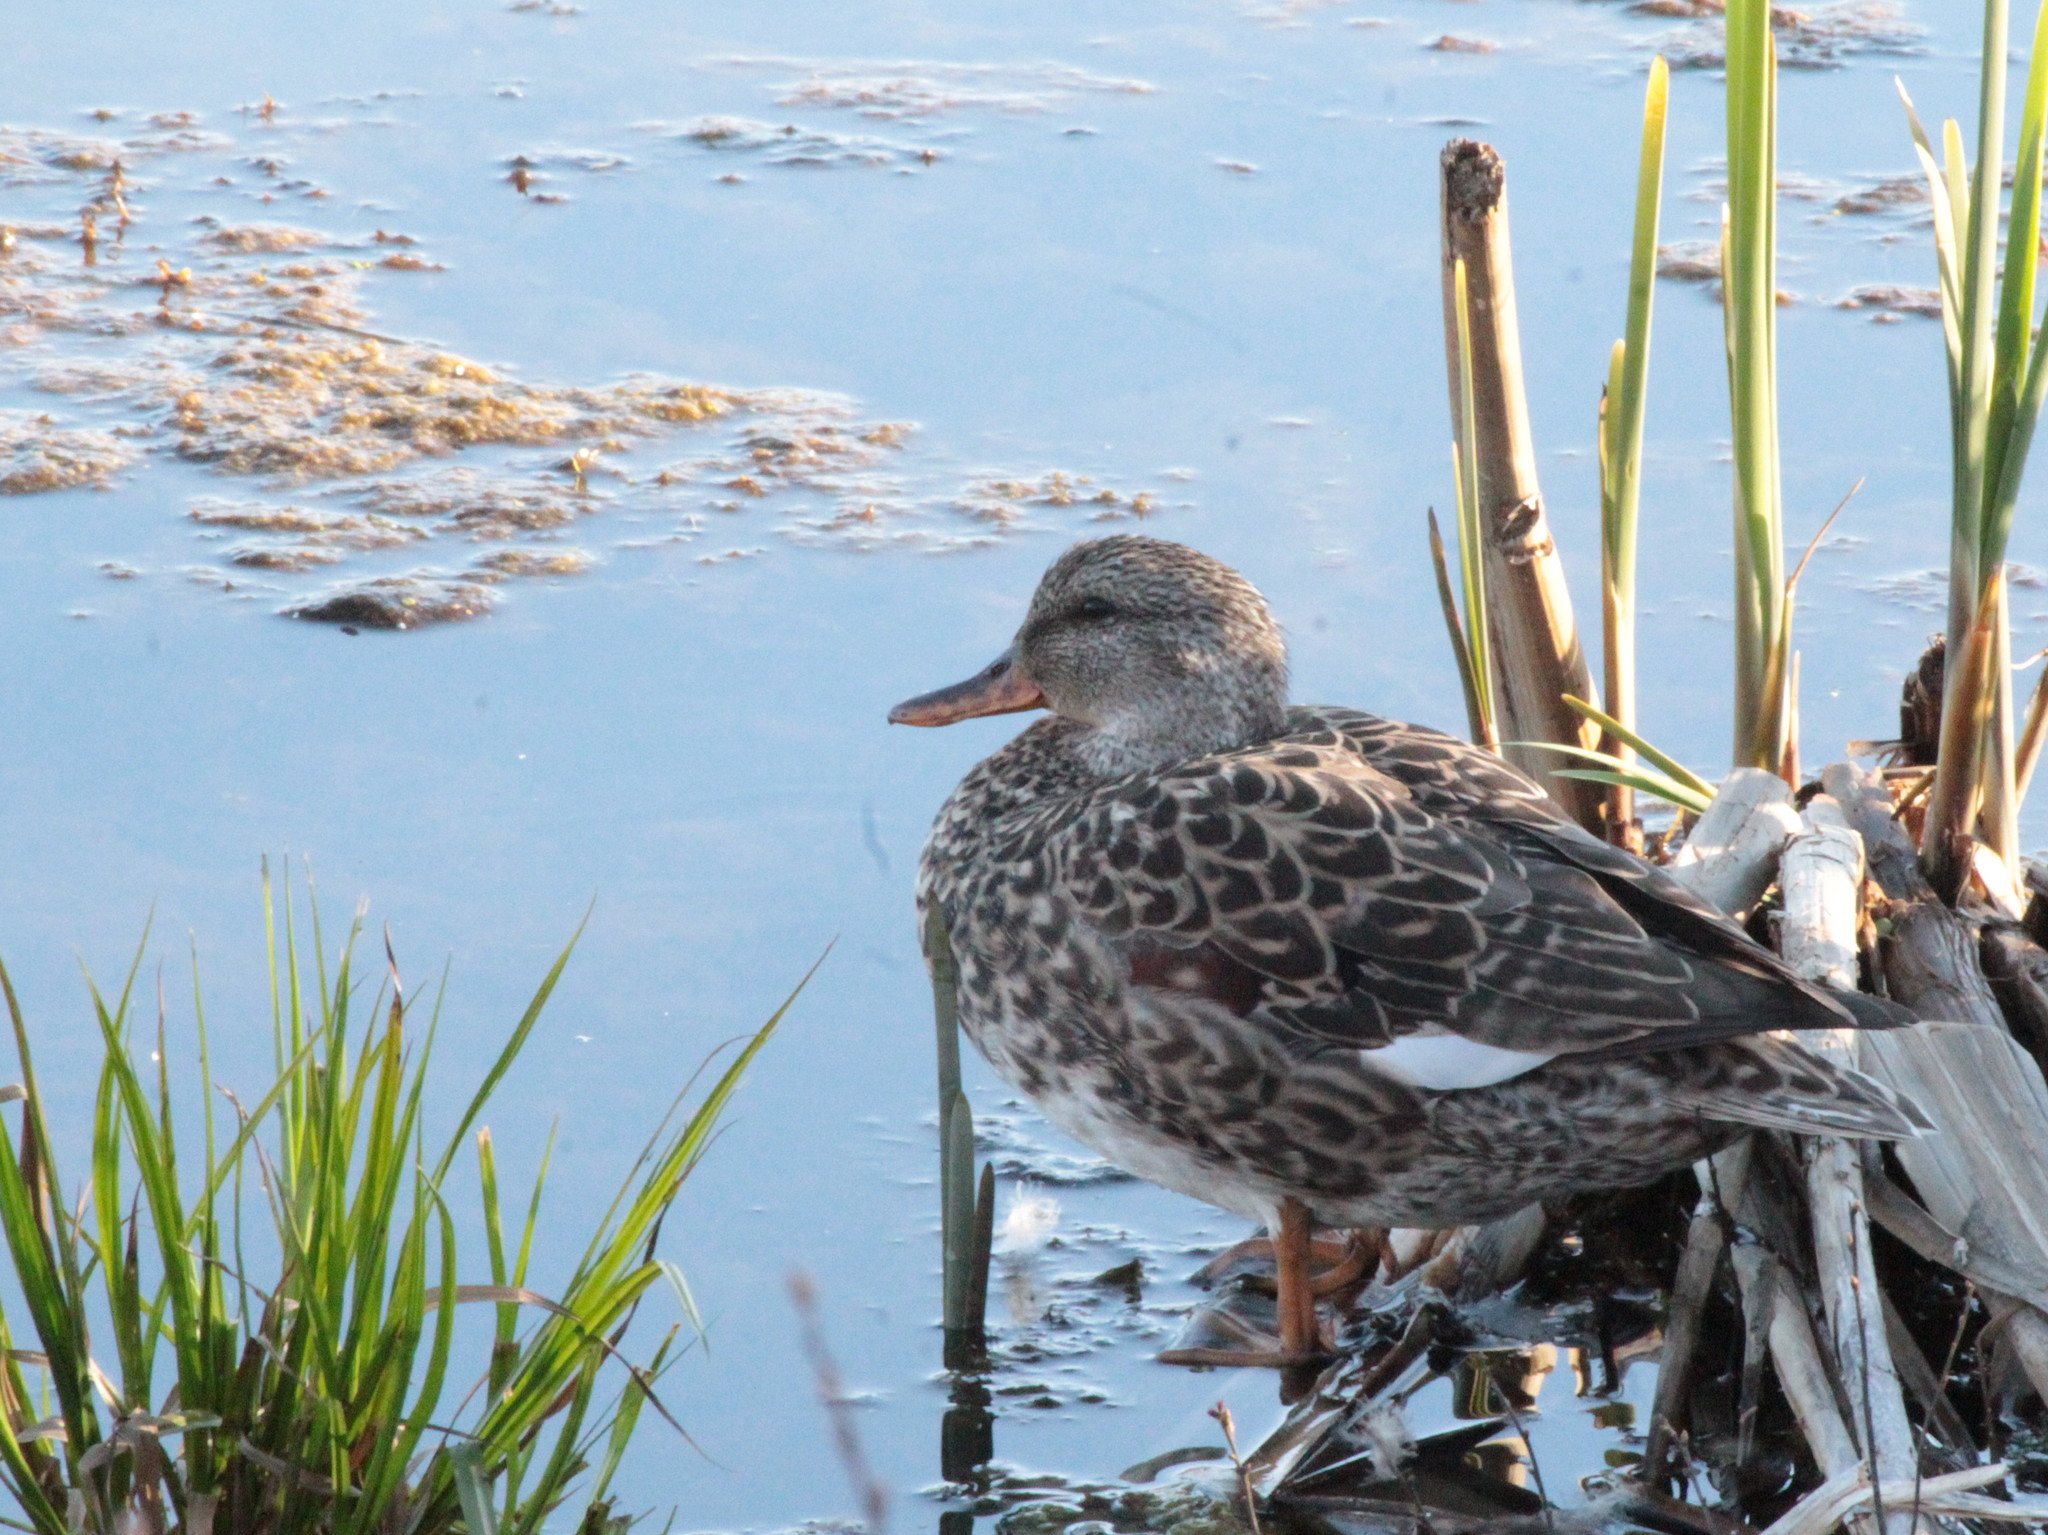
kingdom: Animalia
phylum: Chordata
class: Aves
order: Anseriformes
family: Anatidae
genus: Mareca
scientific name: Mareca strepera
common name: Gadwall
